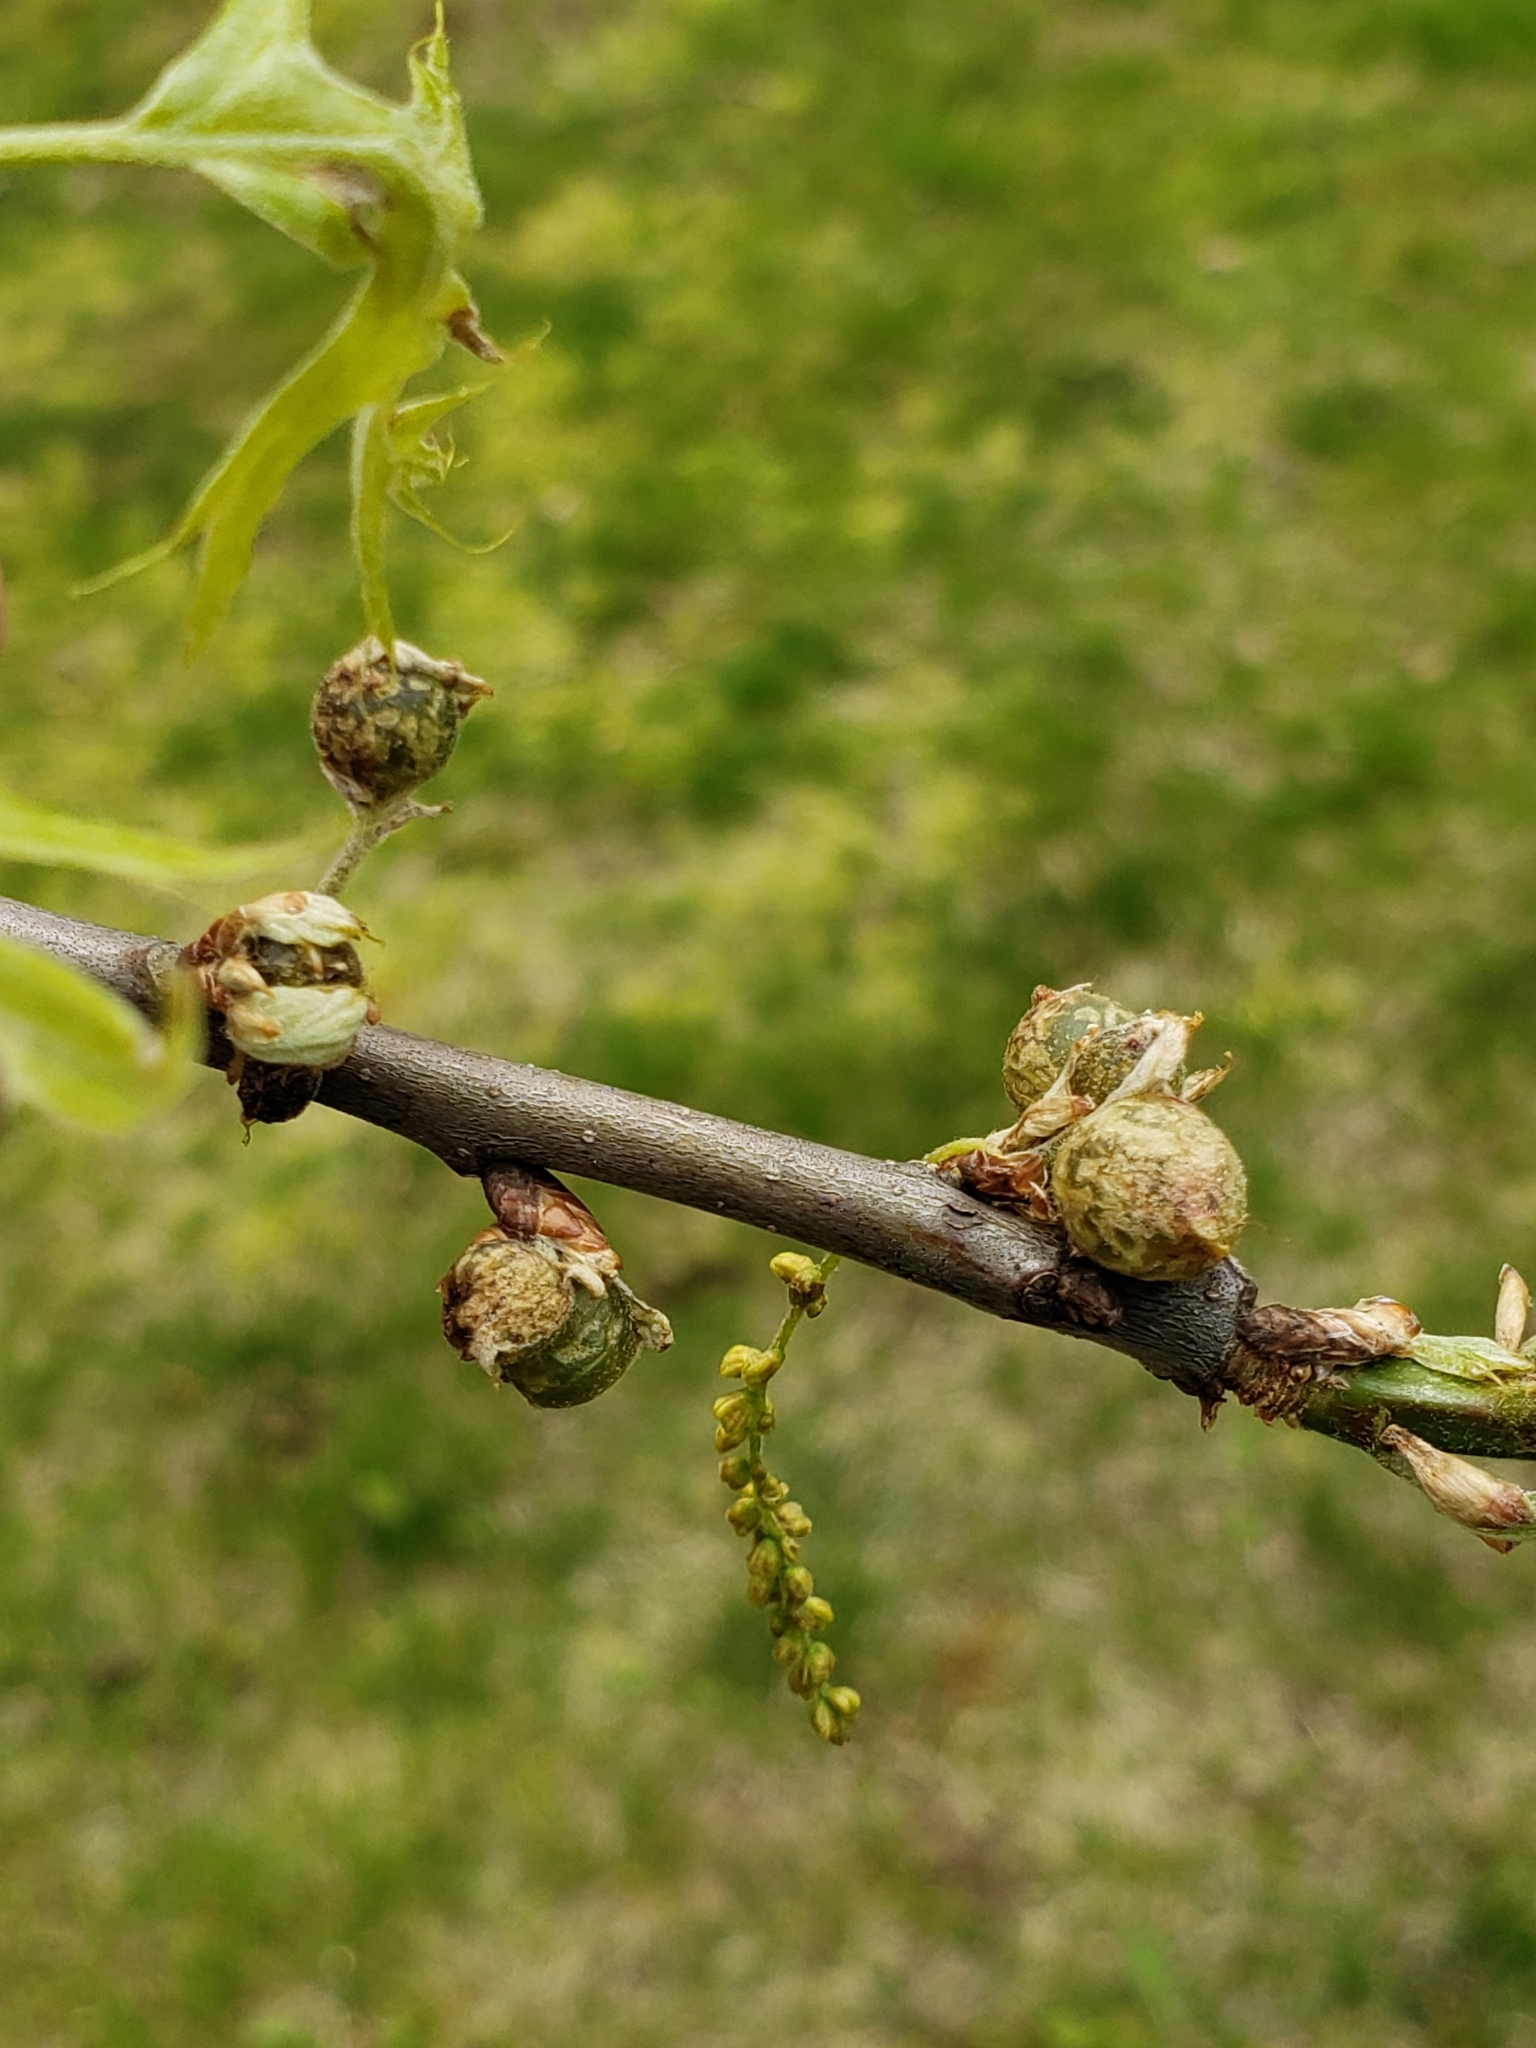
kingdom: Animalia
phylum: Arthropoda
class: Insecta
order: Hymenoptera
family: Cynipidae
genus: Dryocosmus
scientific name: Dryocosmus quercuspalustris
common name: Succulent oak gall wasp
